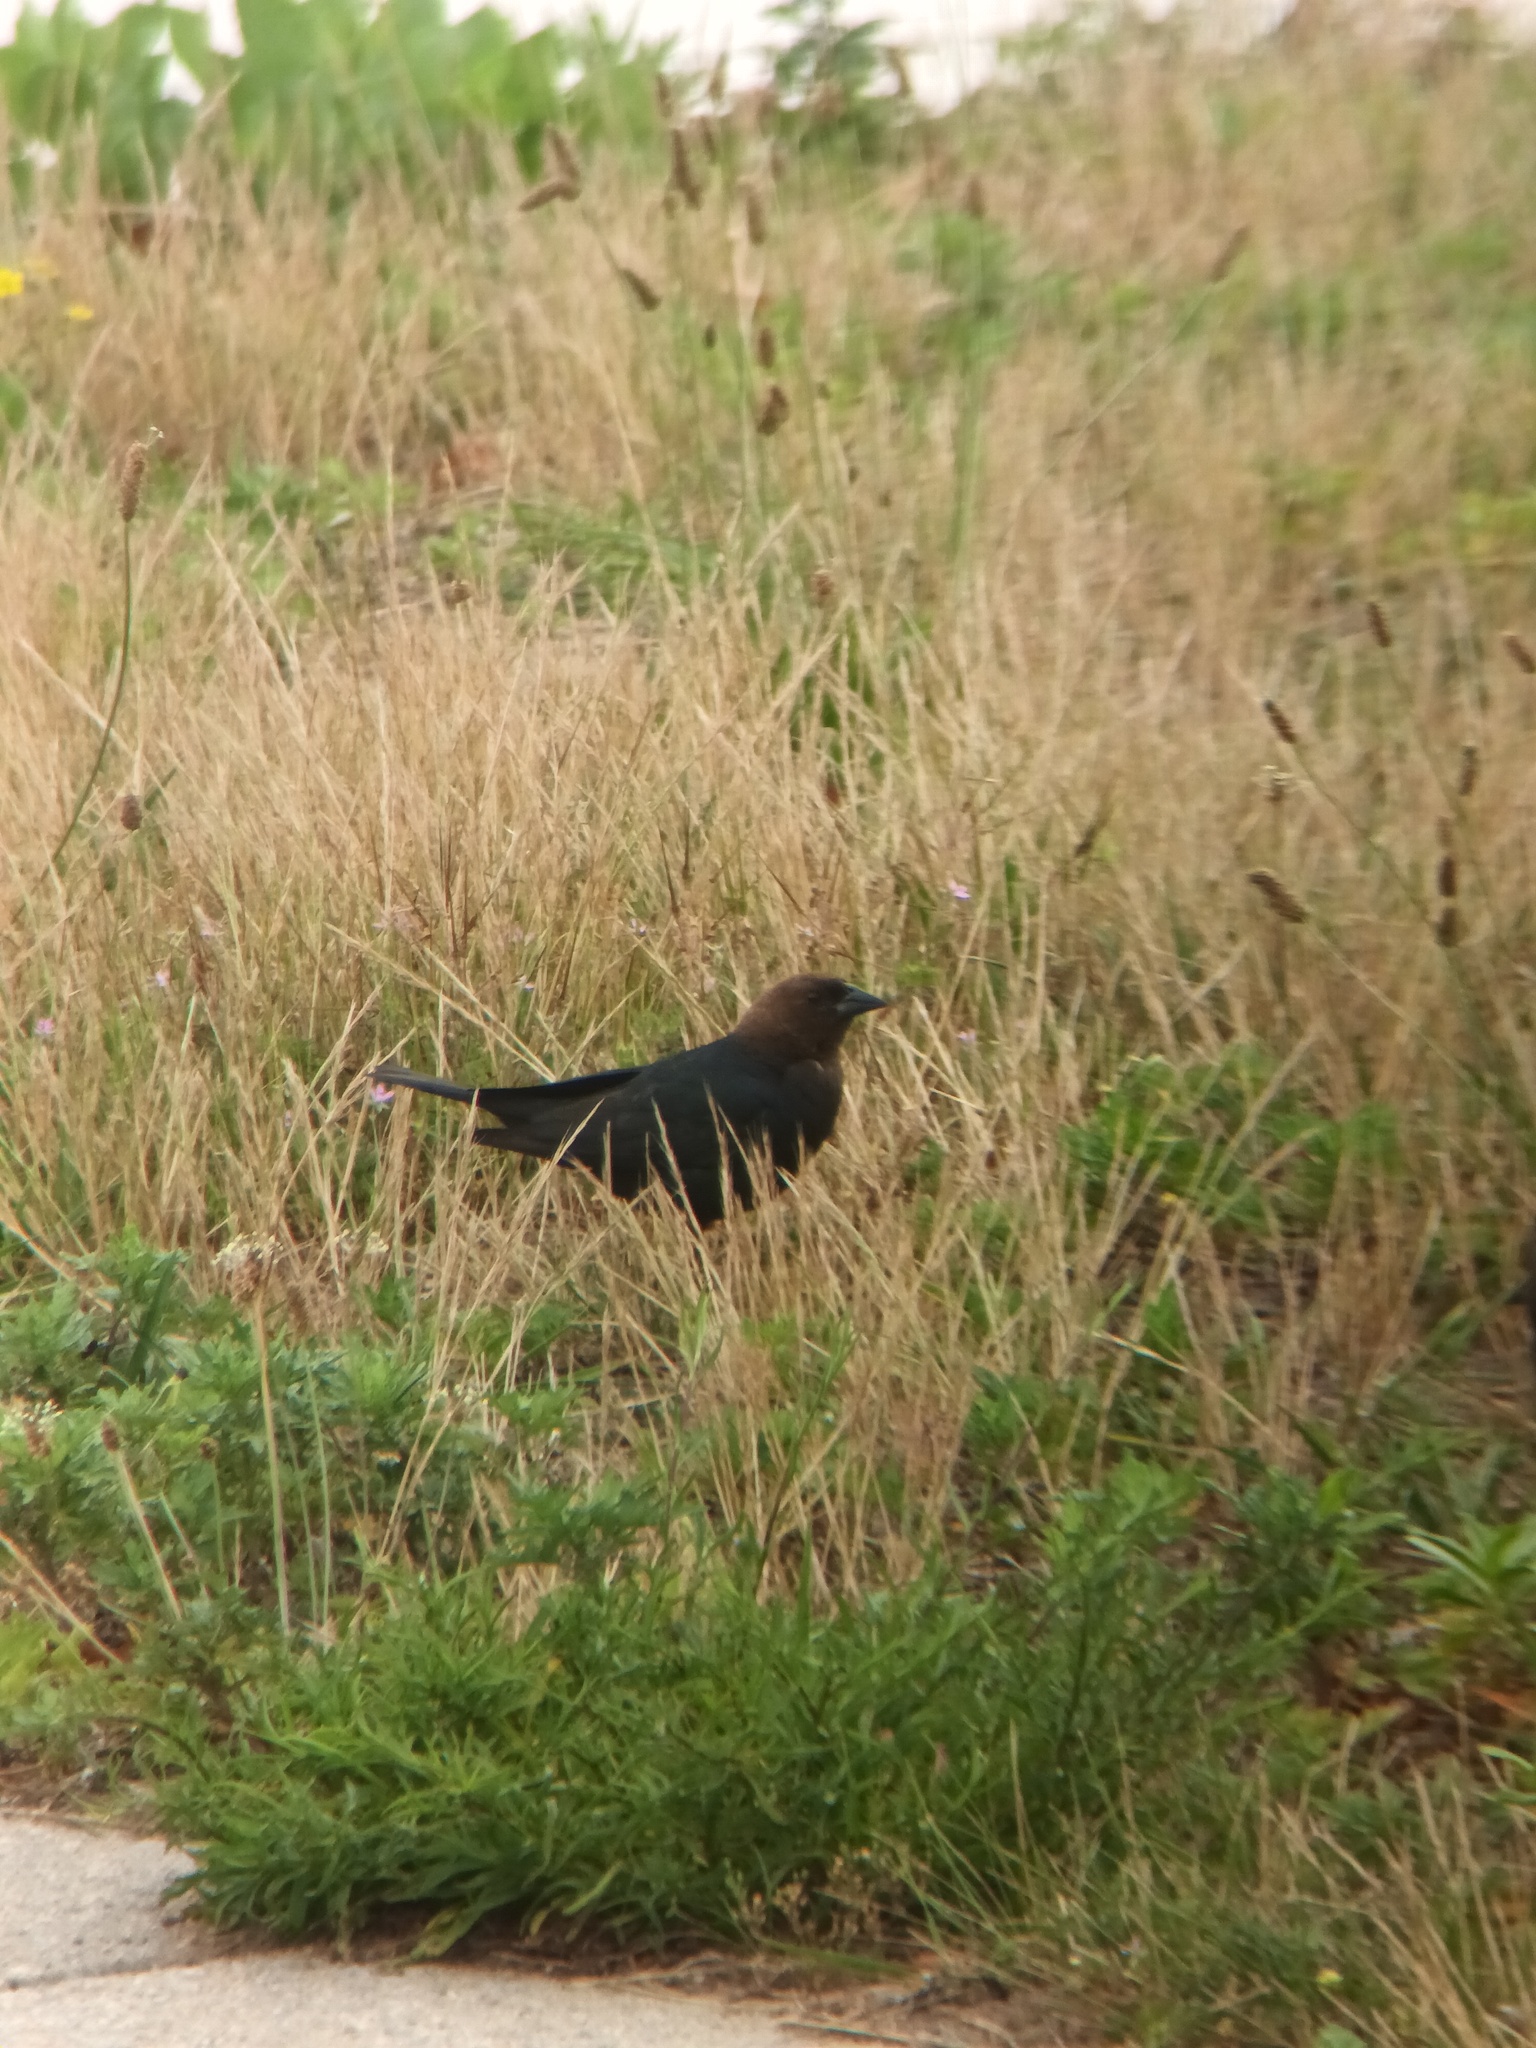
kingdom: Animalia
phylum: Chordata
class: Aves
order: Passeriformes
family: Icteridae
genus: Molothrus
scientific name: Molothrus ater
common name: Brown-headed cowbird
